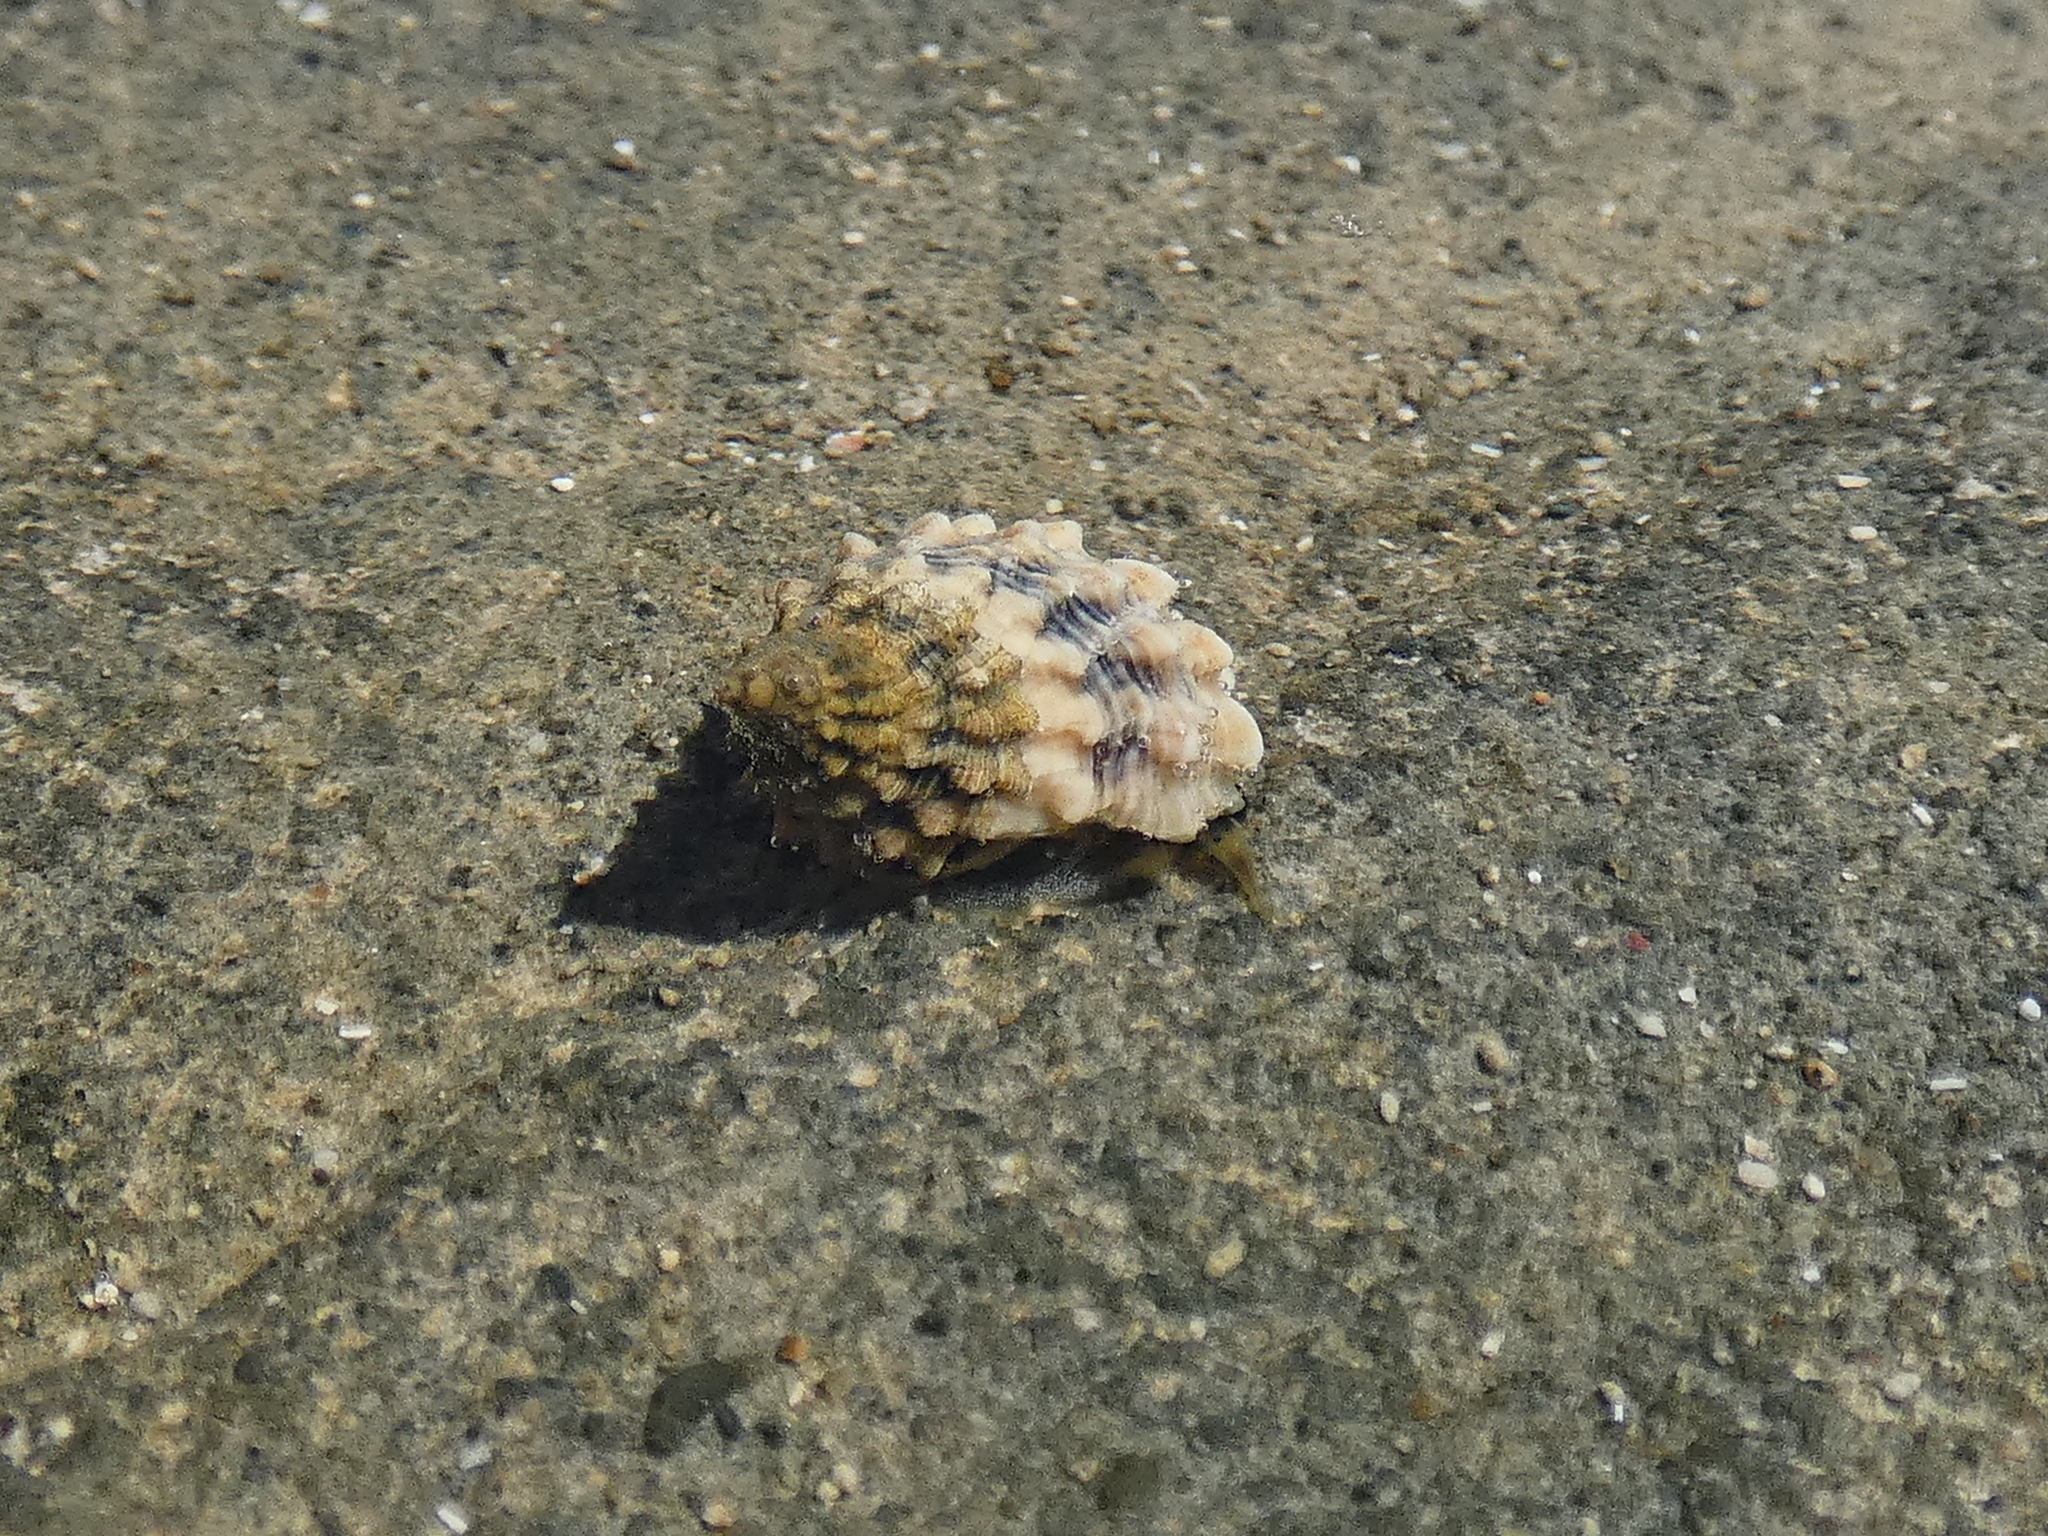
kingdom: Animalia
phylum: Mollusca
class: Gastropoda
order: Littorinimorpha
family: Littorinidae
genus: Tectarius
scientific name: Tectarius antonii
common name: False prickly periwinkle
